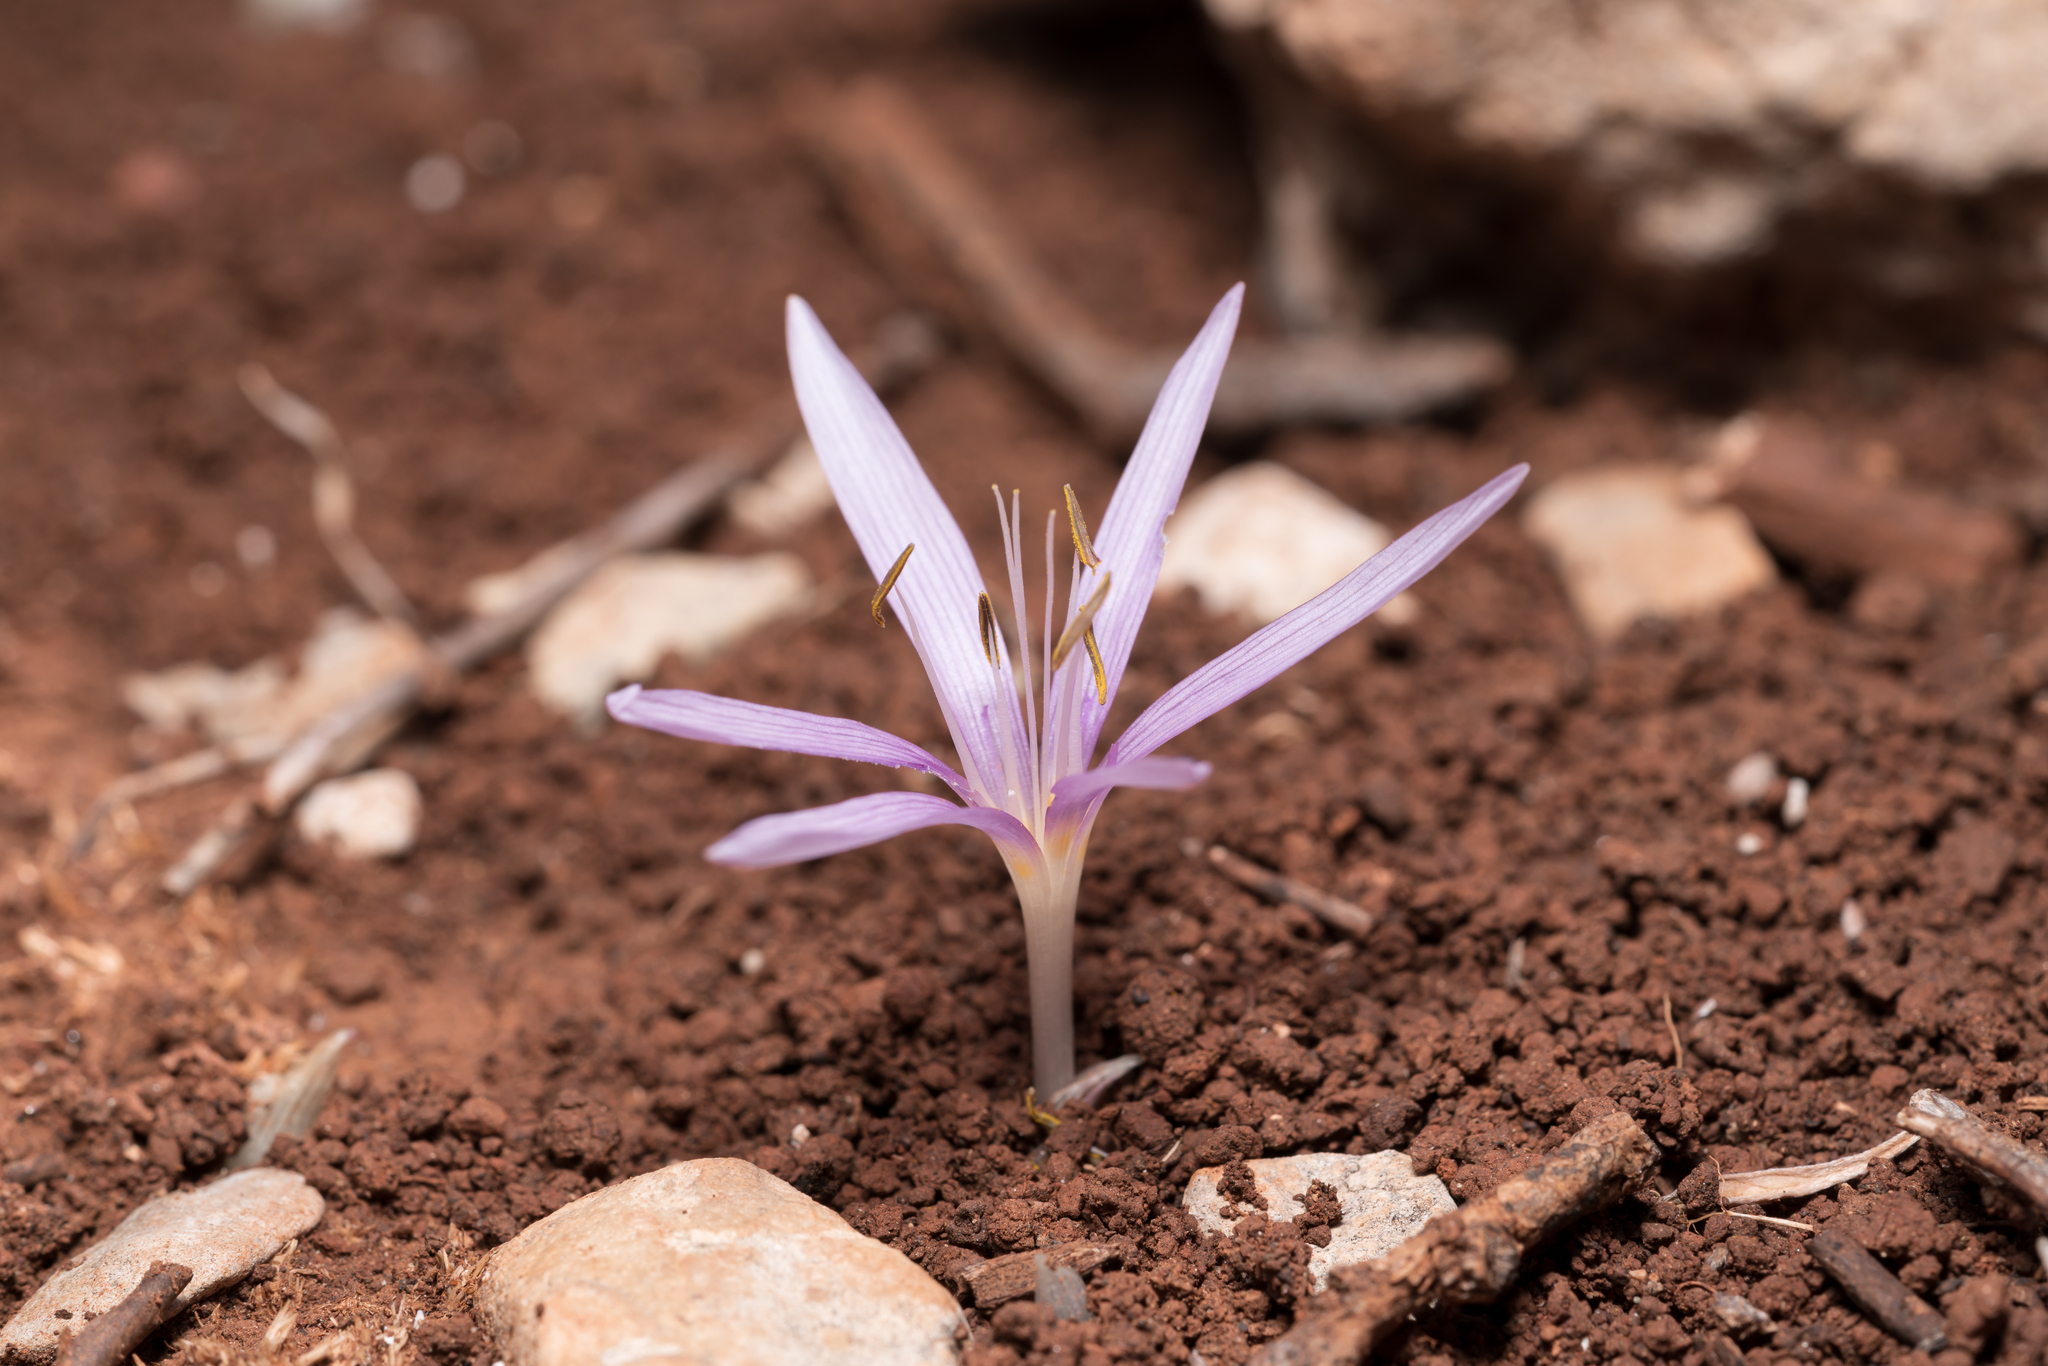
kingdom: Plantae
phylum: Tracheophyta
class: Liliopsida
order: Liliales
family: Colchicaceae
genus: Colchicum
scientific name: Colchicum pusillum
